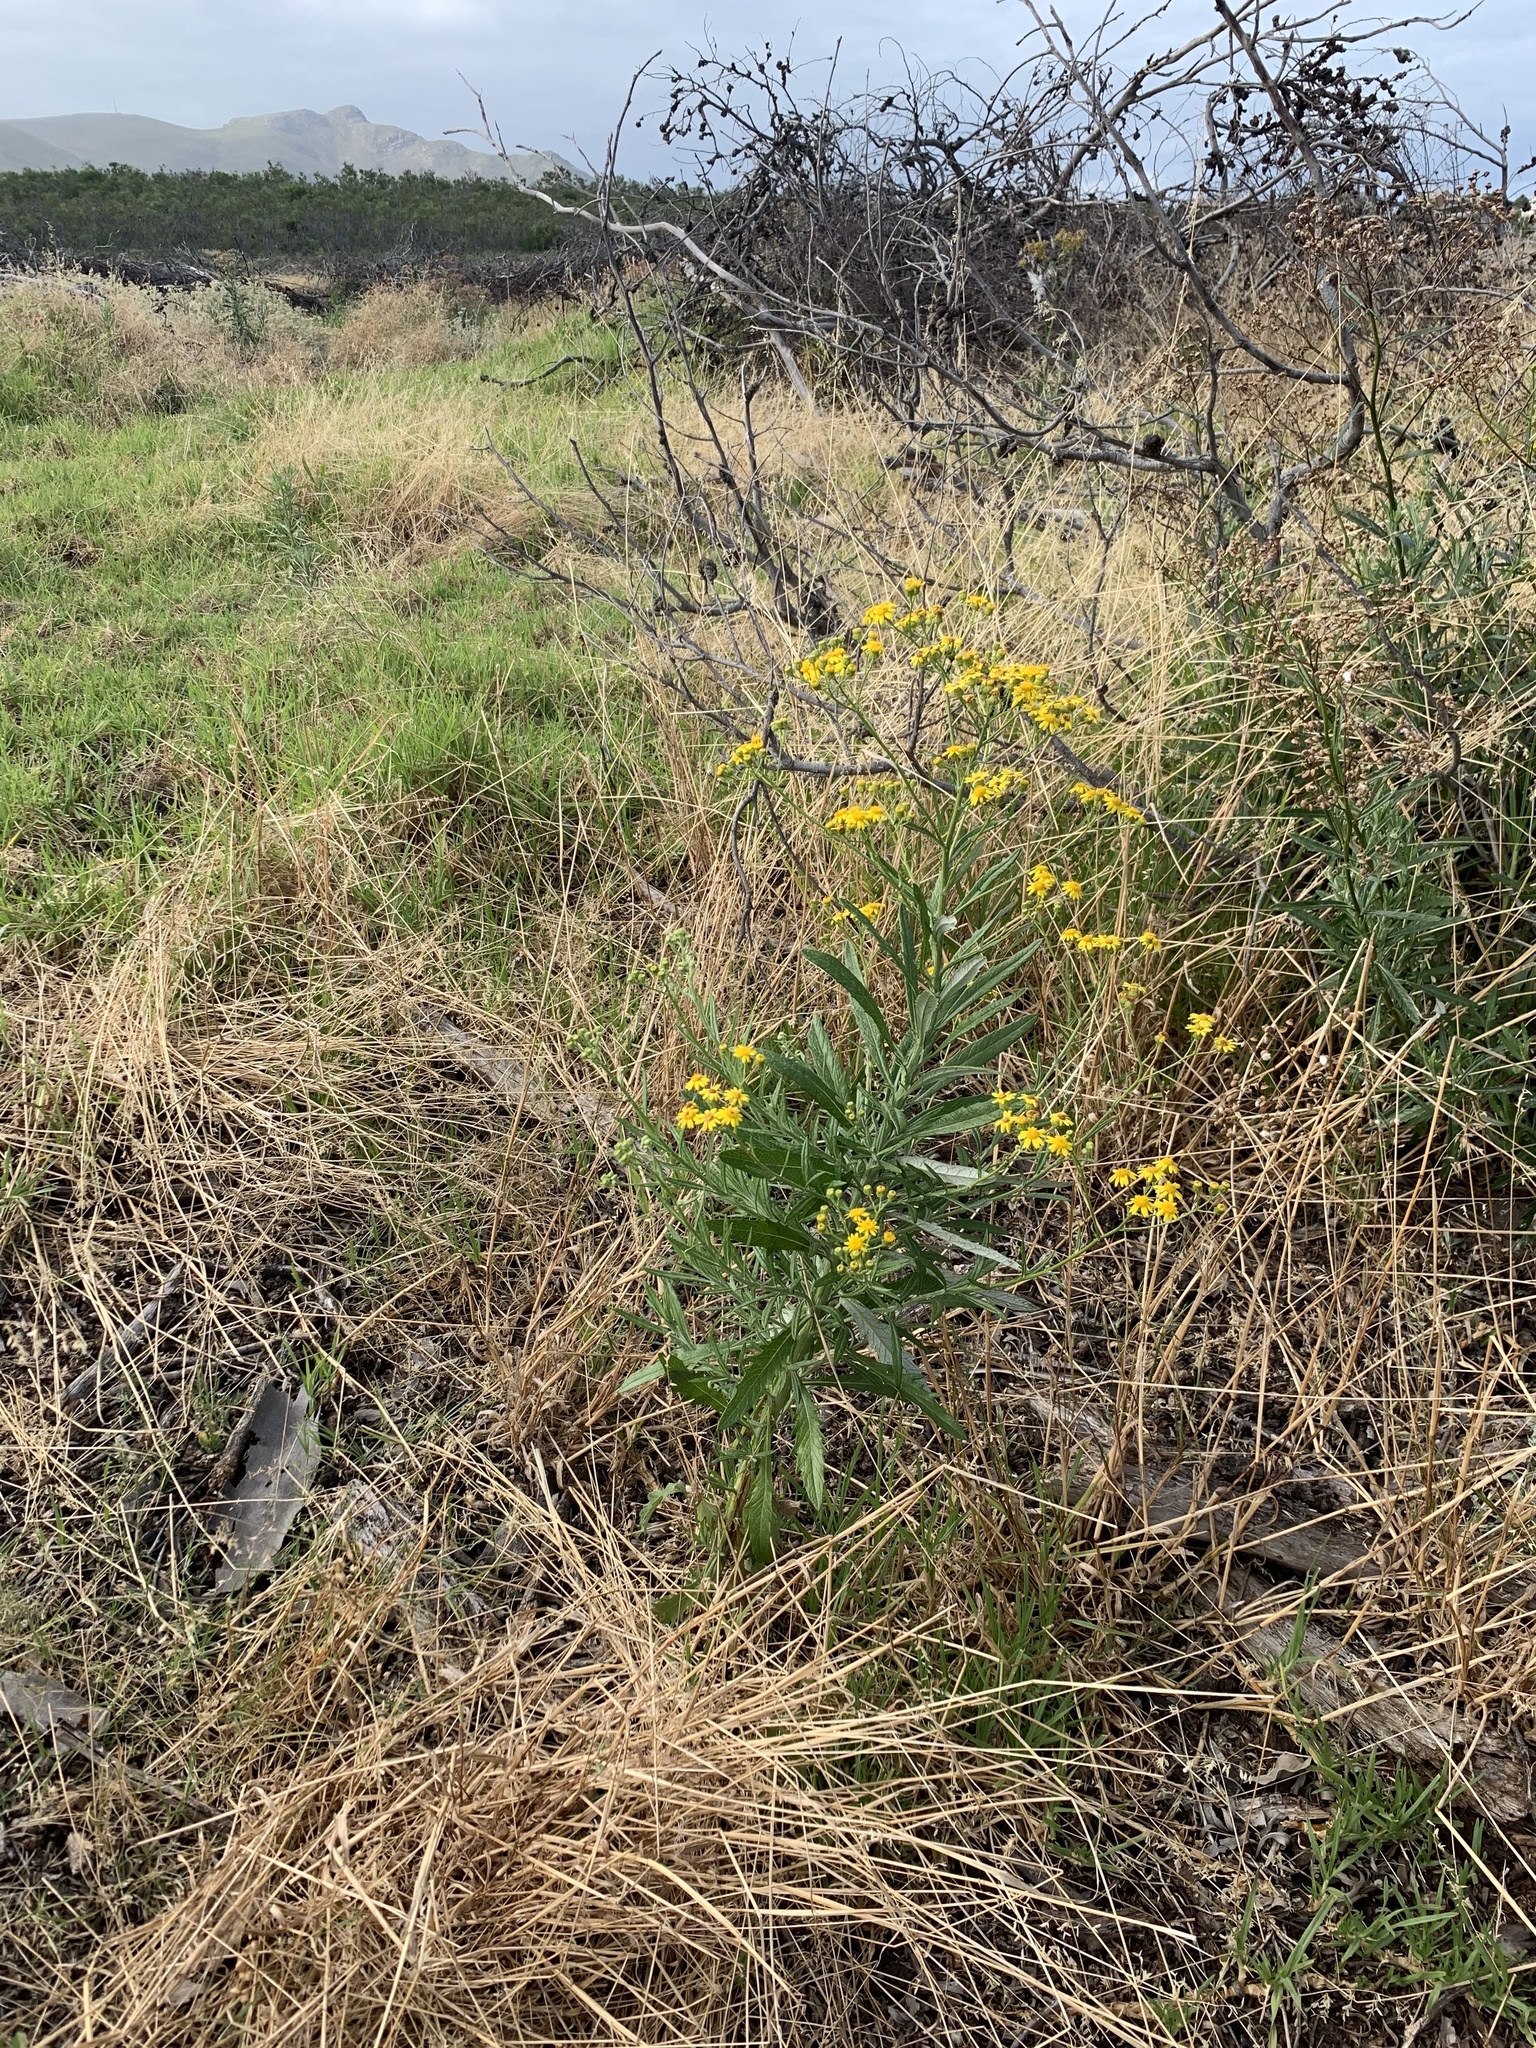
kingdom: Plantae
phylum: Tracheophyta
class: Magnoliopsida
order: Asterales
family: Asteraceae
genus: Senecio
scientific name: Senecio pterophorus
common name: Shoddy ragwort
